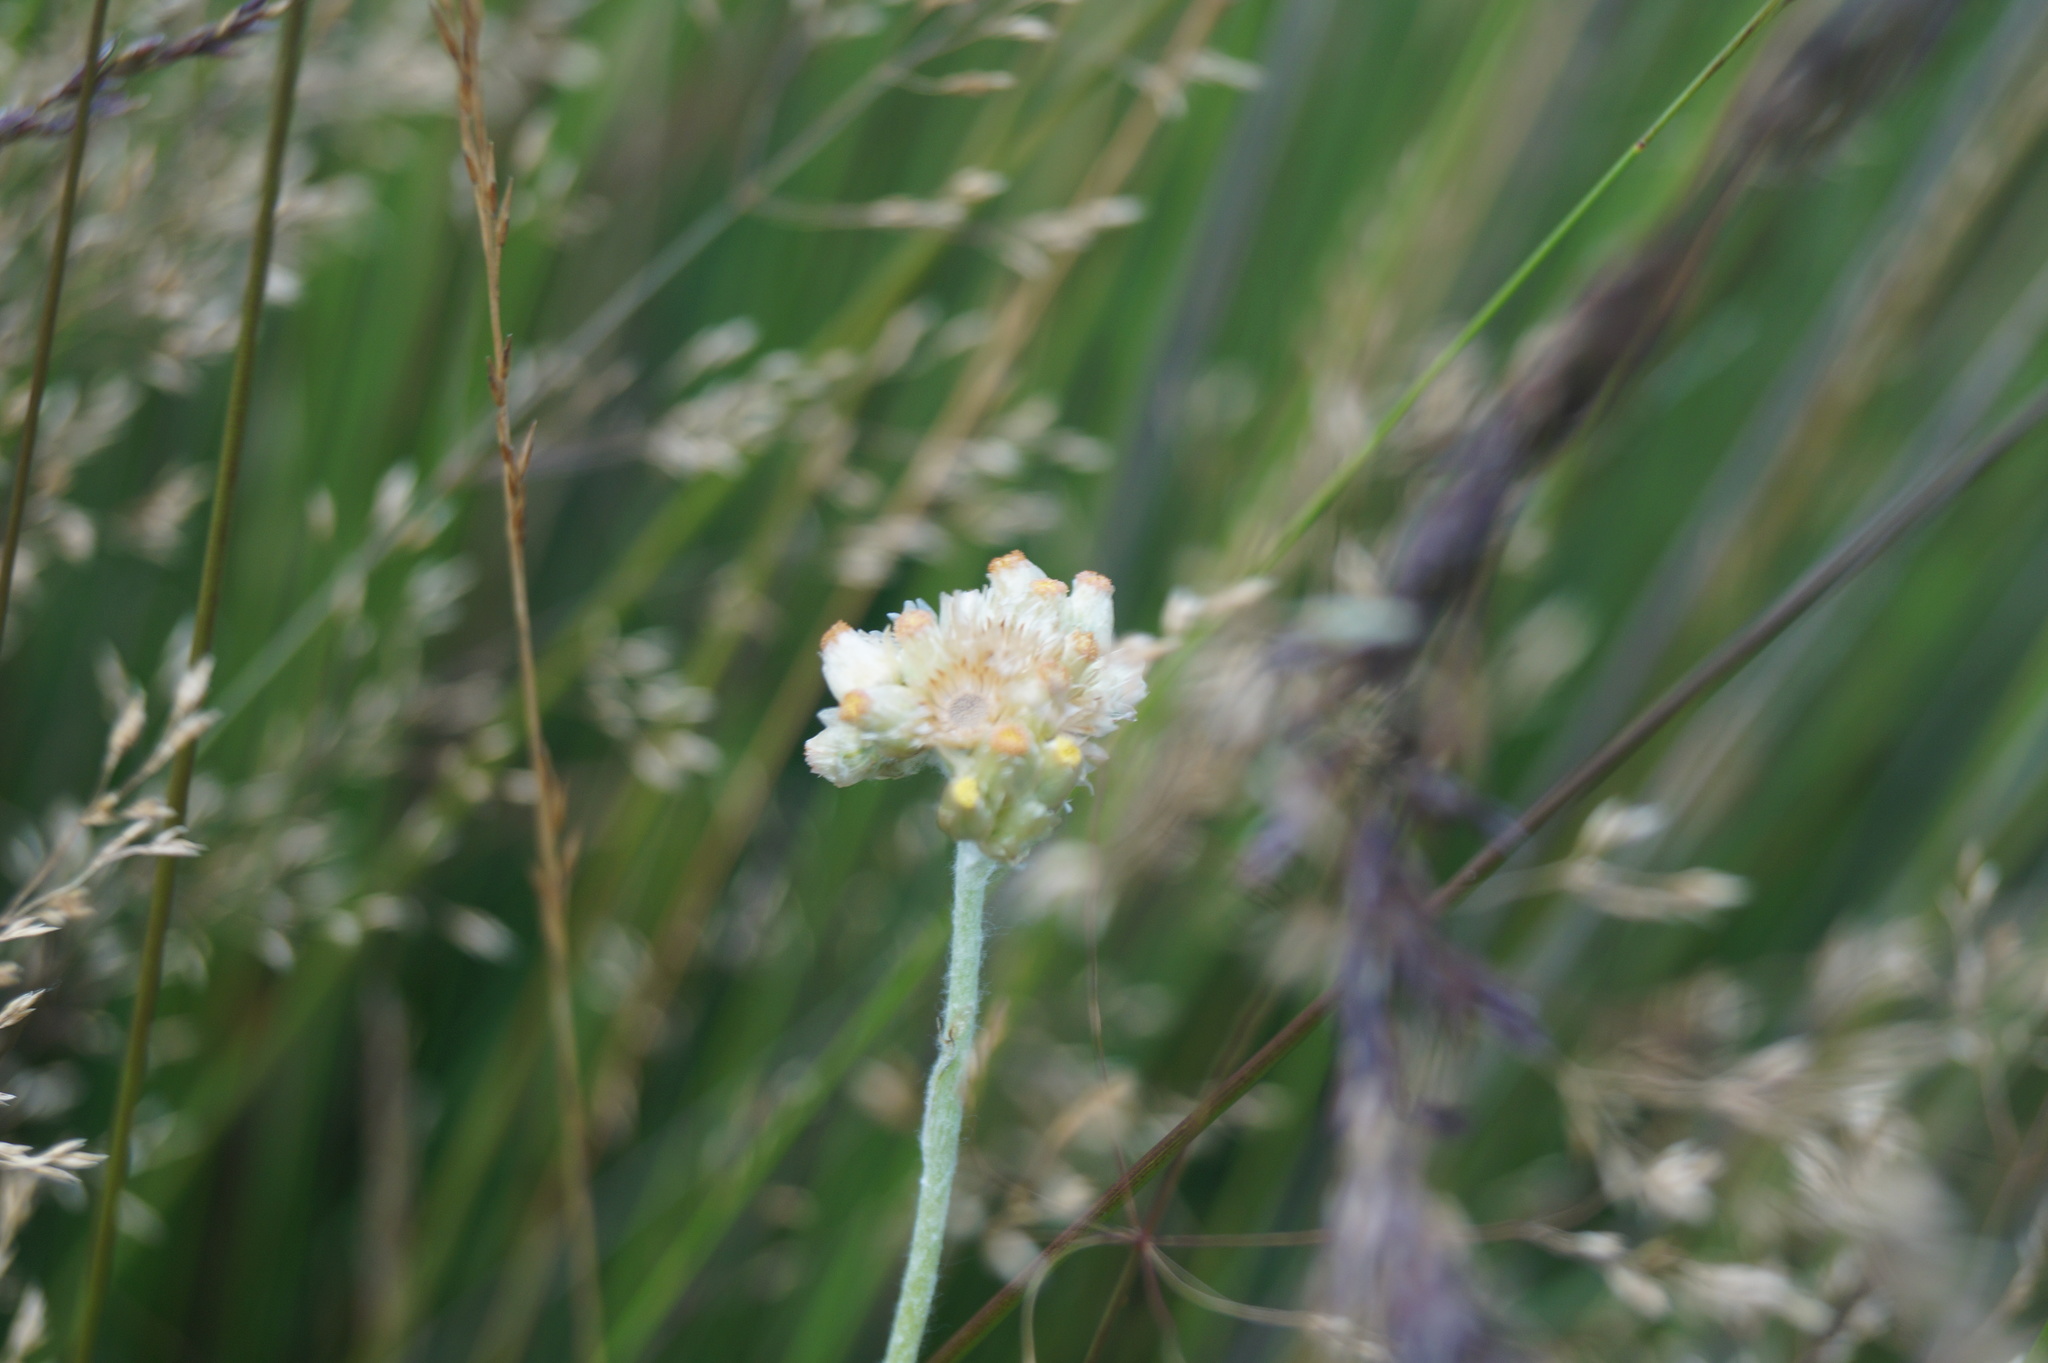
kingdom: Plantae
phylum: Tracheophyta
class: Magnoliopsida
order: Asterales
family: Asteraceae
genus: Helichrysum
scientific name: Helichrysum luteoalbum
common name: Daisy
